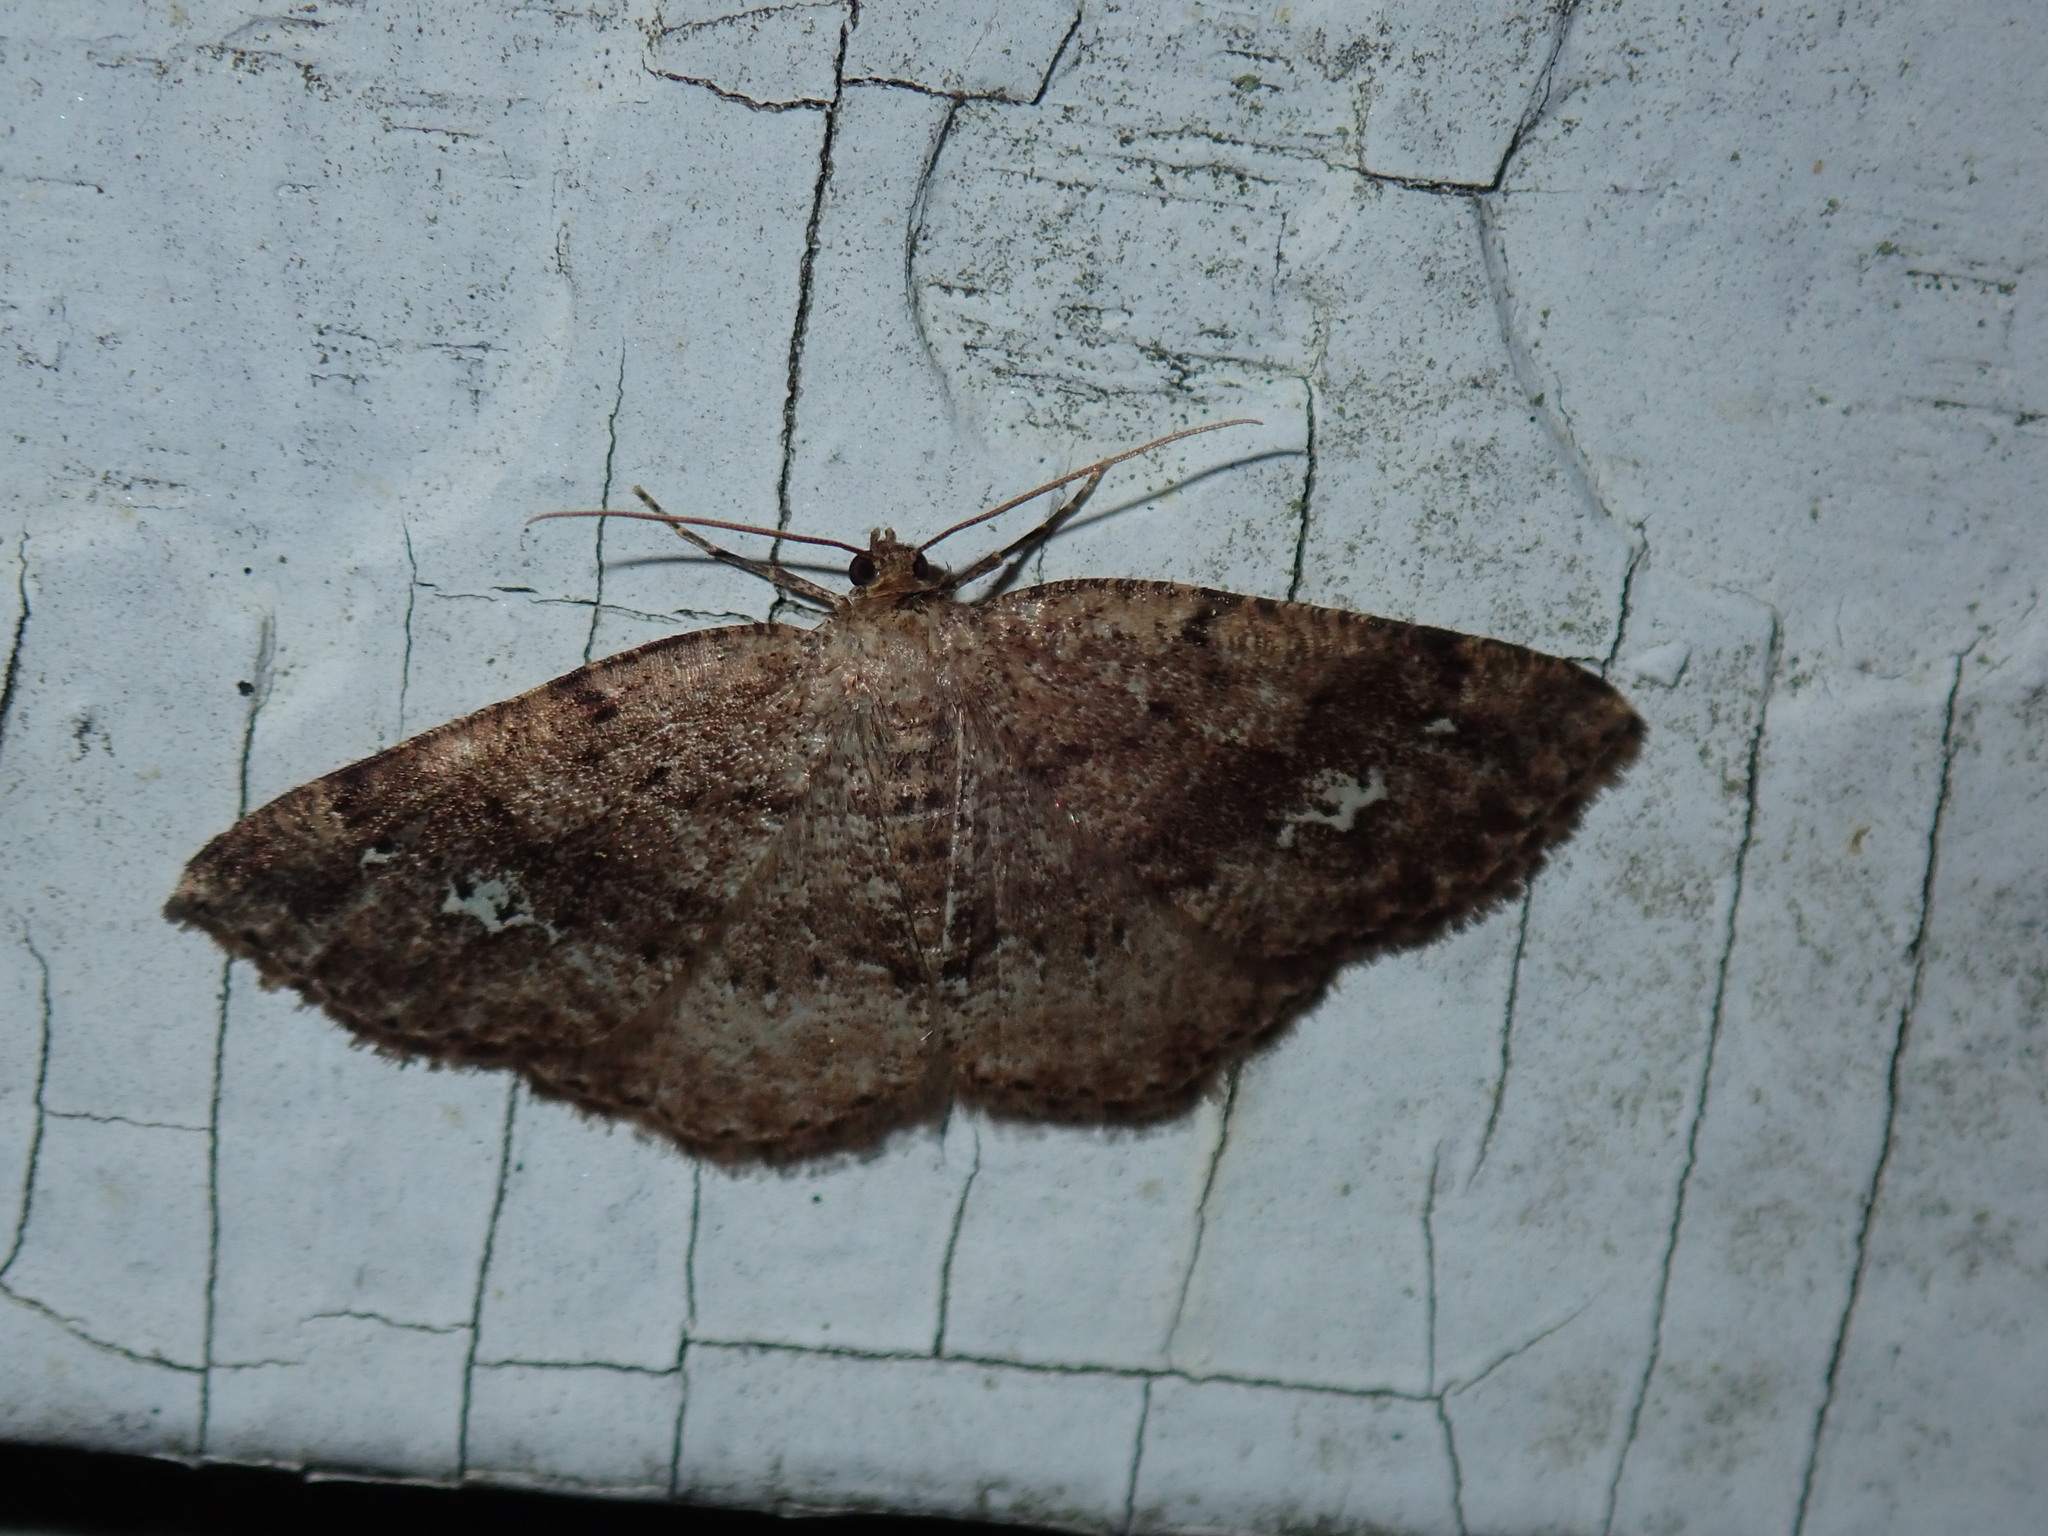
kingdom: Animalia
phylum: Arthropoda
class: Insecta
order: Lepidoptera
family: Geometridae
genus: Homochlodes
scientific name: Homochlodes fritillaria
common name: Pale homochlodes
